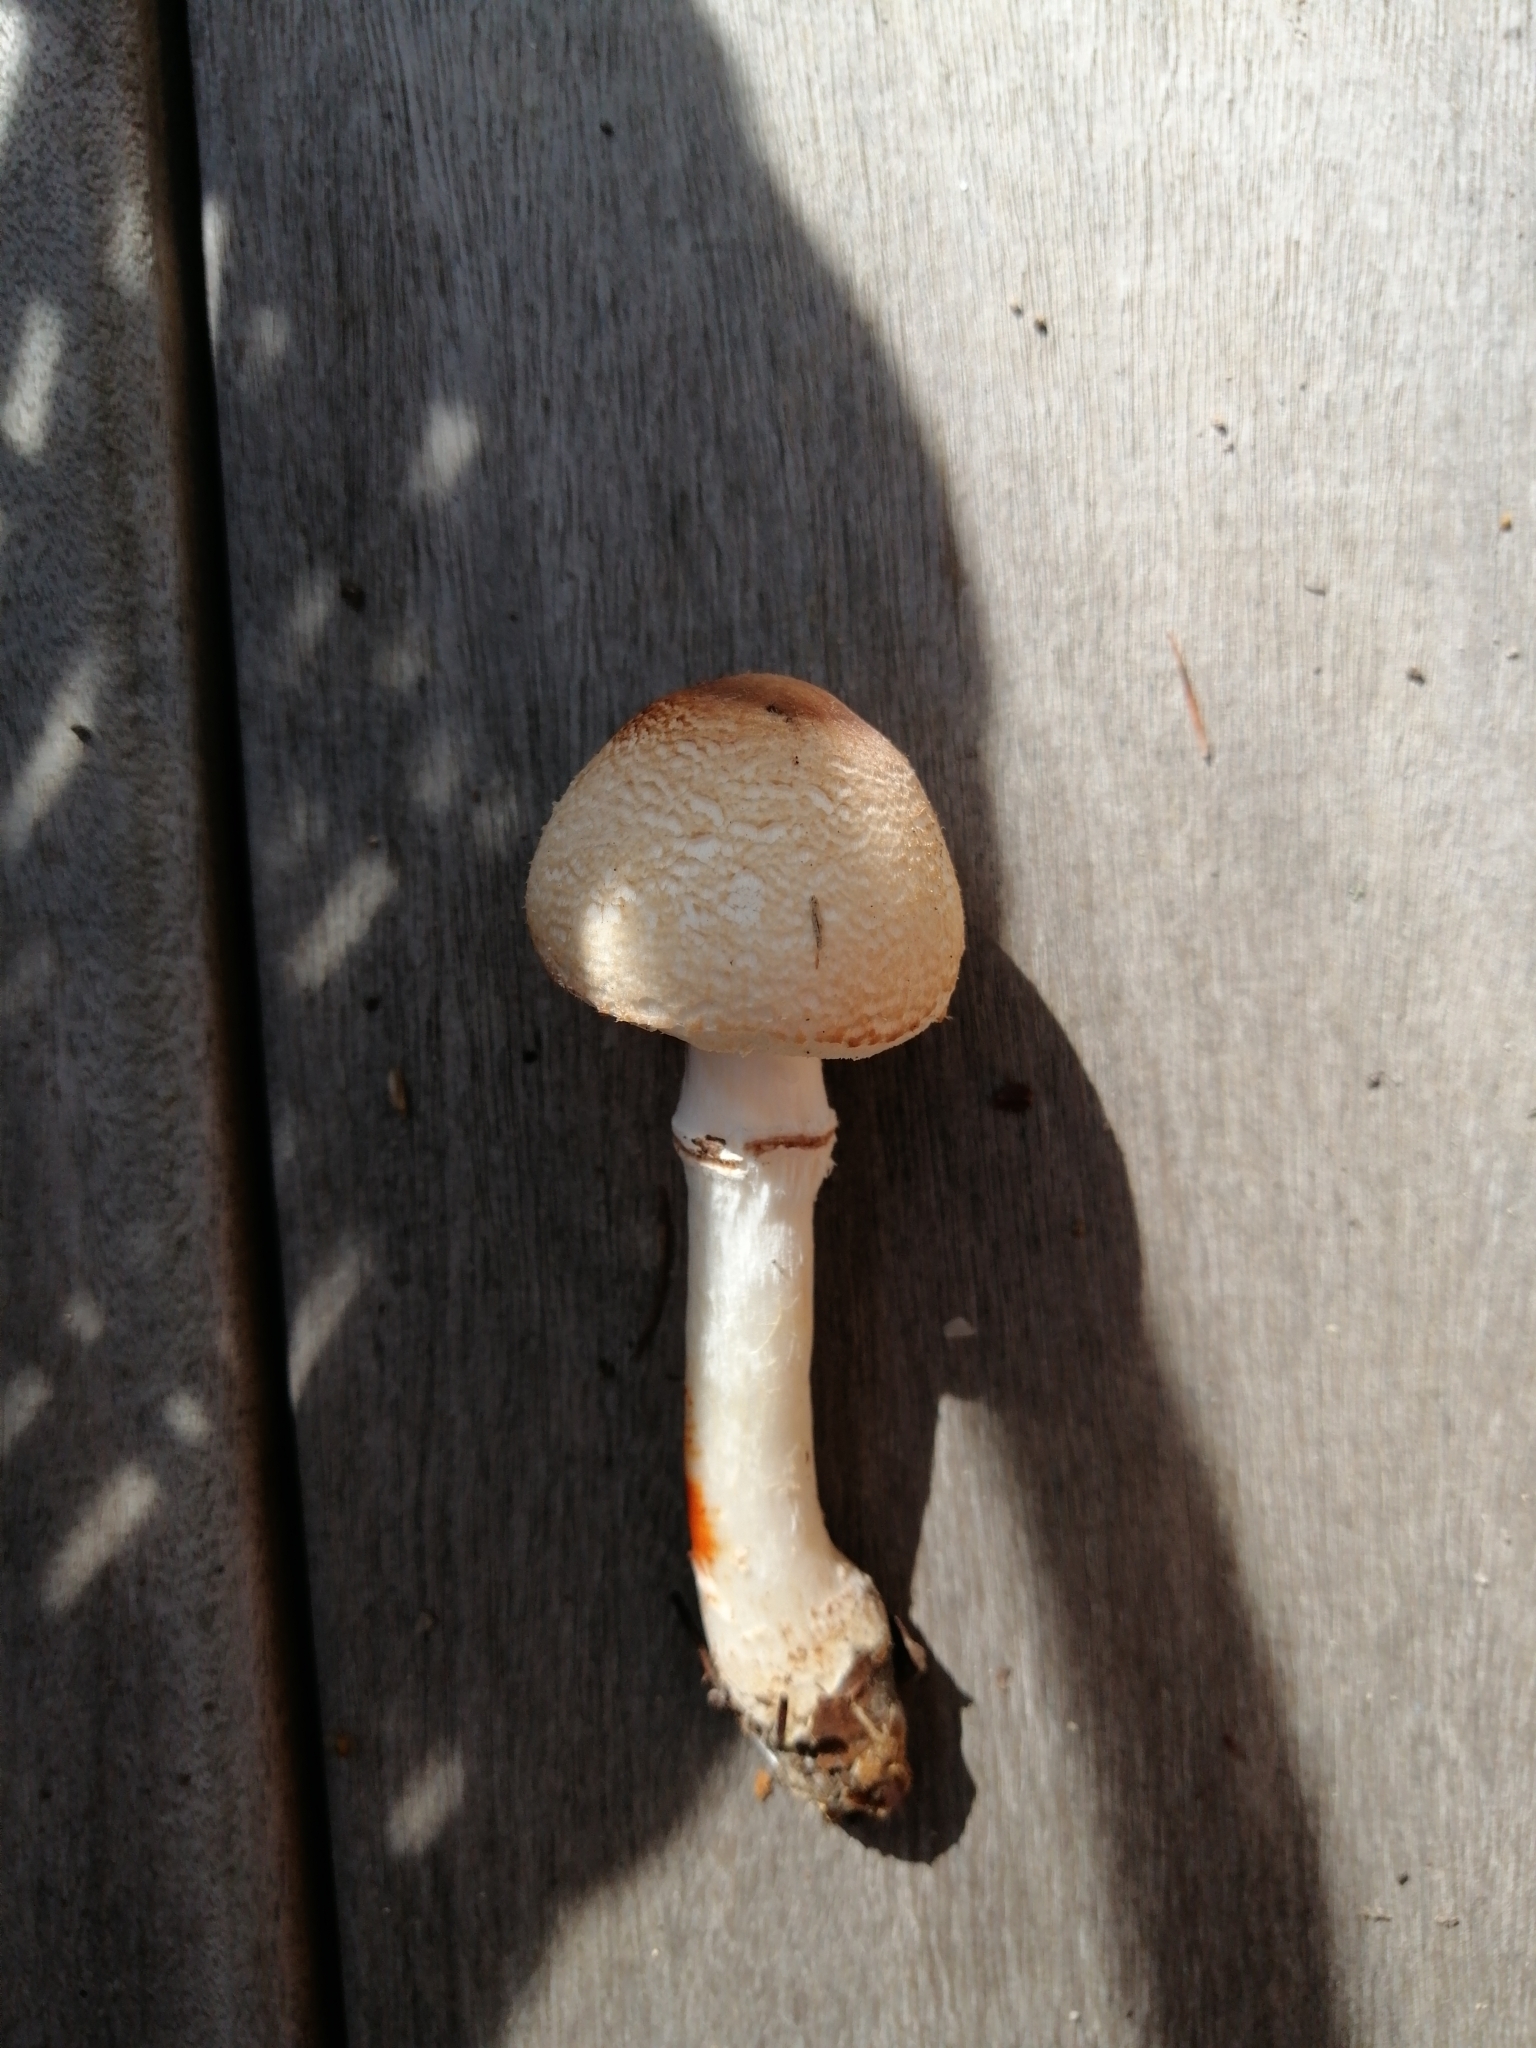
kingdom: Fungi
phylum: Basidiomycota
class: Agaricomycetes
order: Agaricales
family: Agaricaceae
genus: Leucoagaricus
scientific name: Leucoagaricus badhamii
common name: Blushing dapperling
